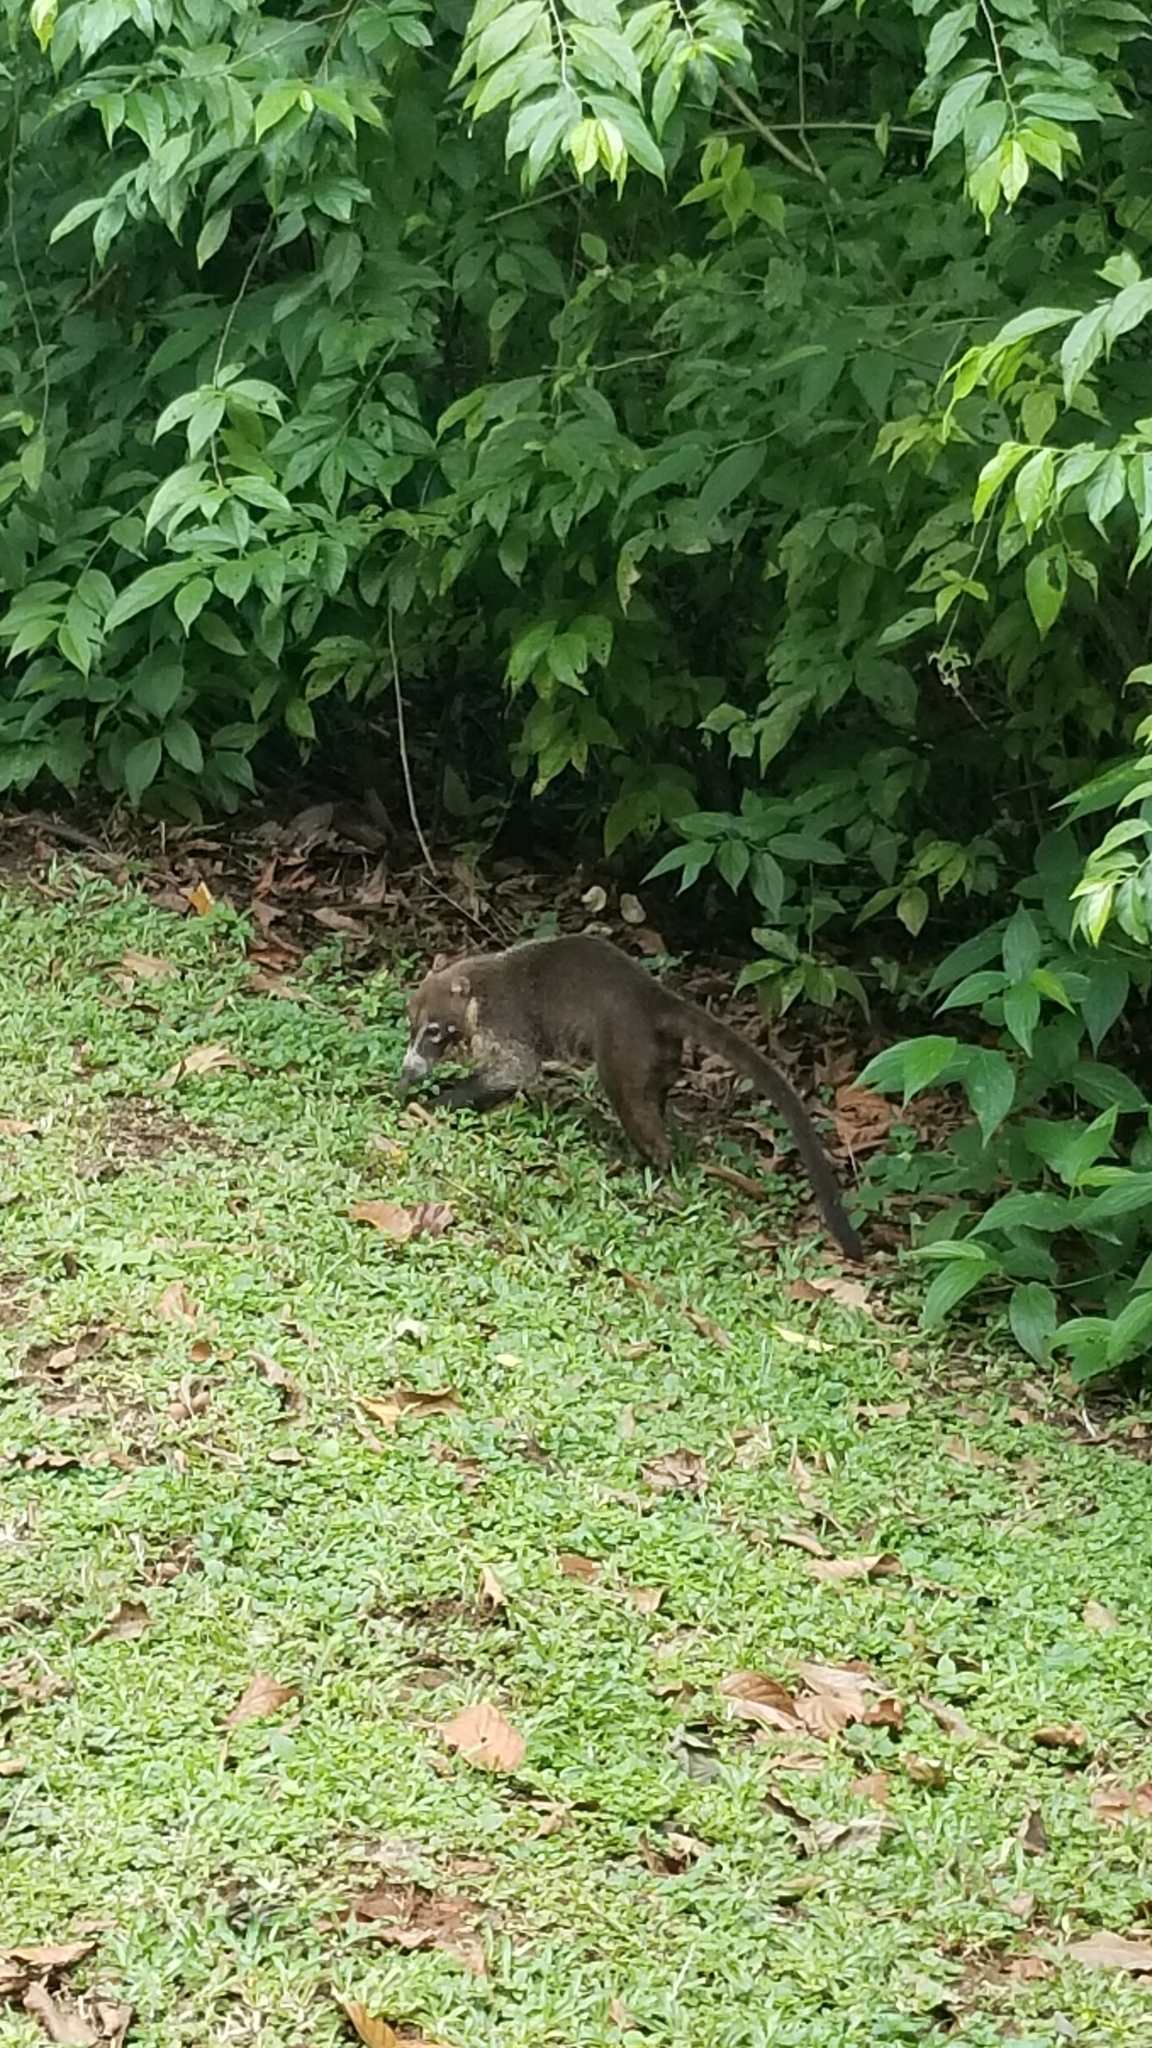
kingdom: Animalia
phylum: Chordata
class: Mammalia
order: Carnivora
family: Procyonidae
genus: Nasua
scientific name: Nasua narica
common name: White-nosed coati
